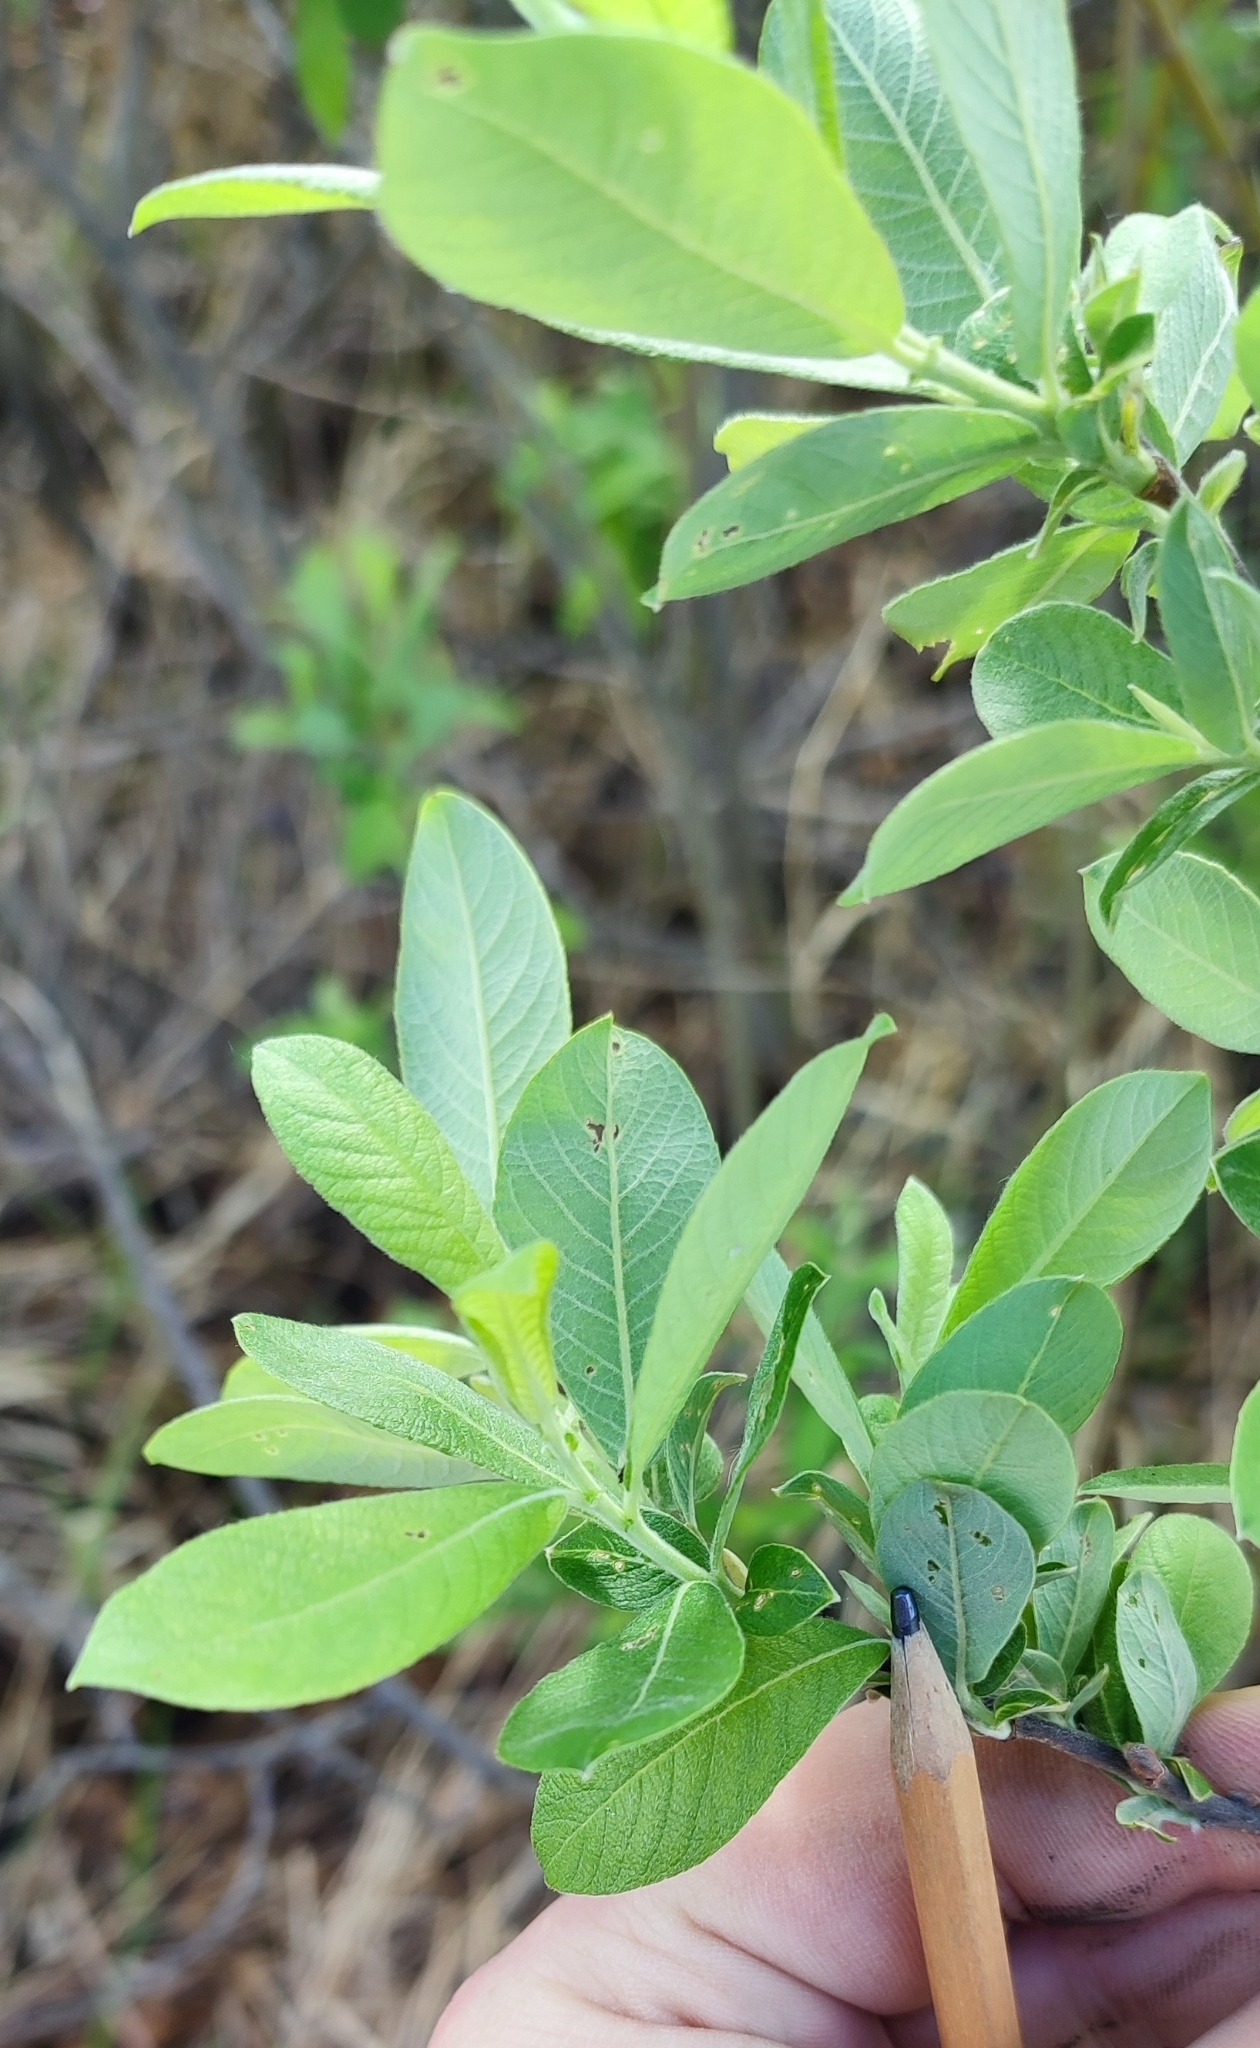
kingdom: Plantae
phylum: Tracheophyta
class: Magnoliopsida
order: Malpighiales
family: Salicaceae
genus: Salix
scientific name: Salix cinerea
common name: Common sallow
